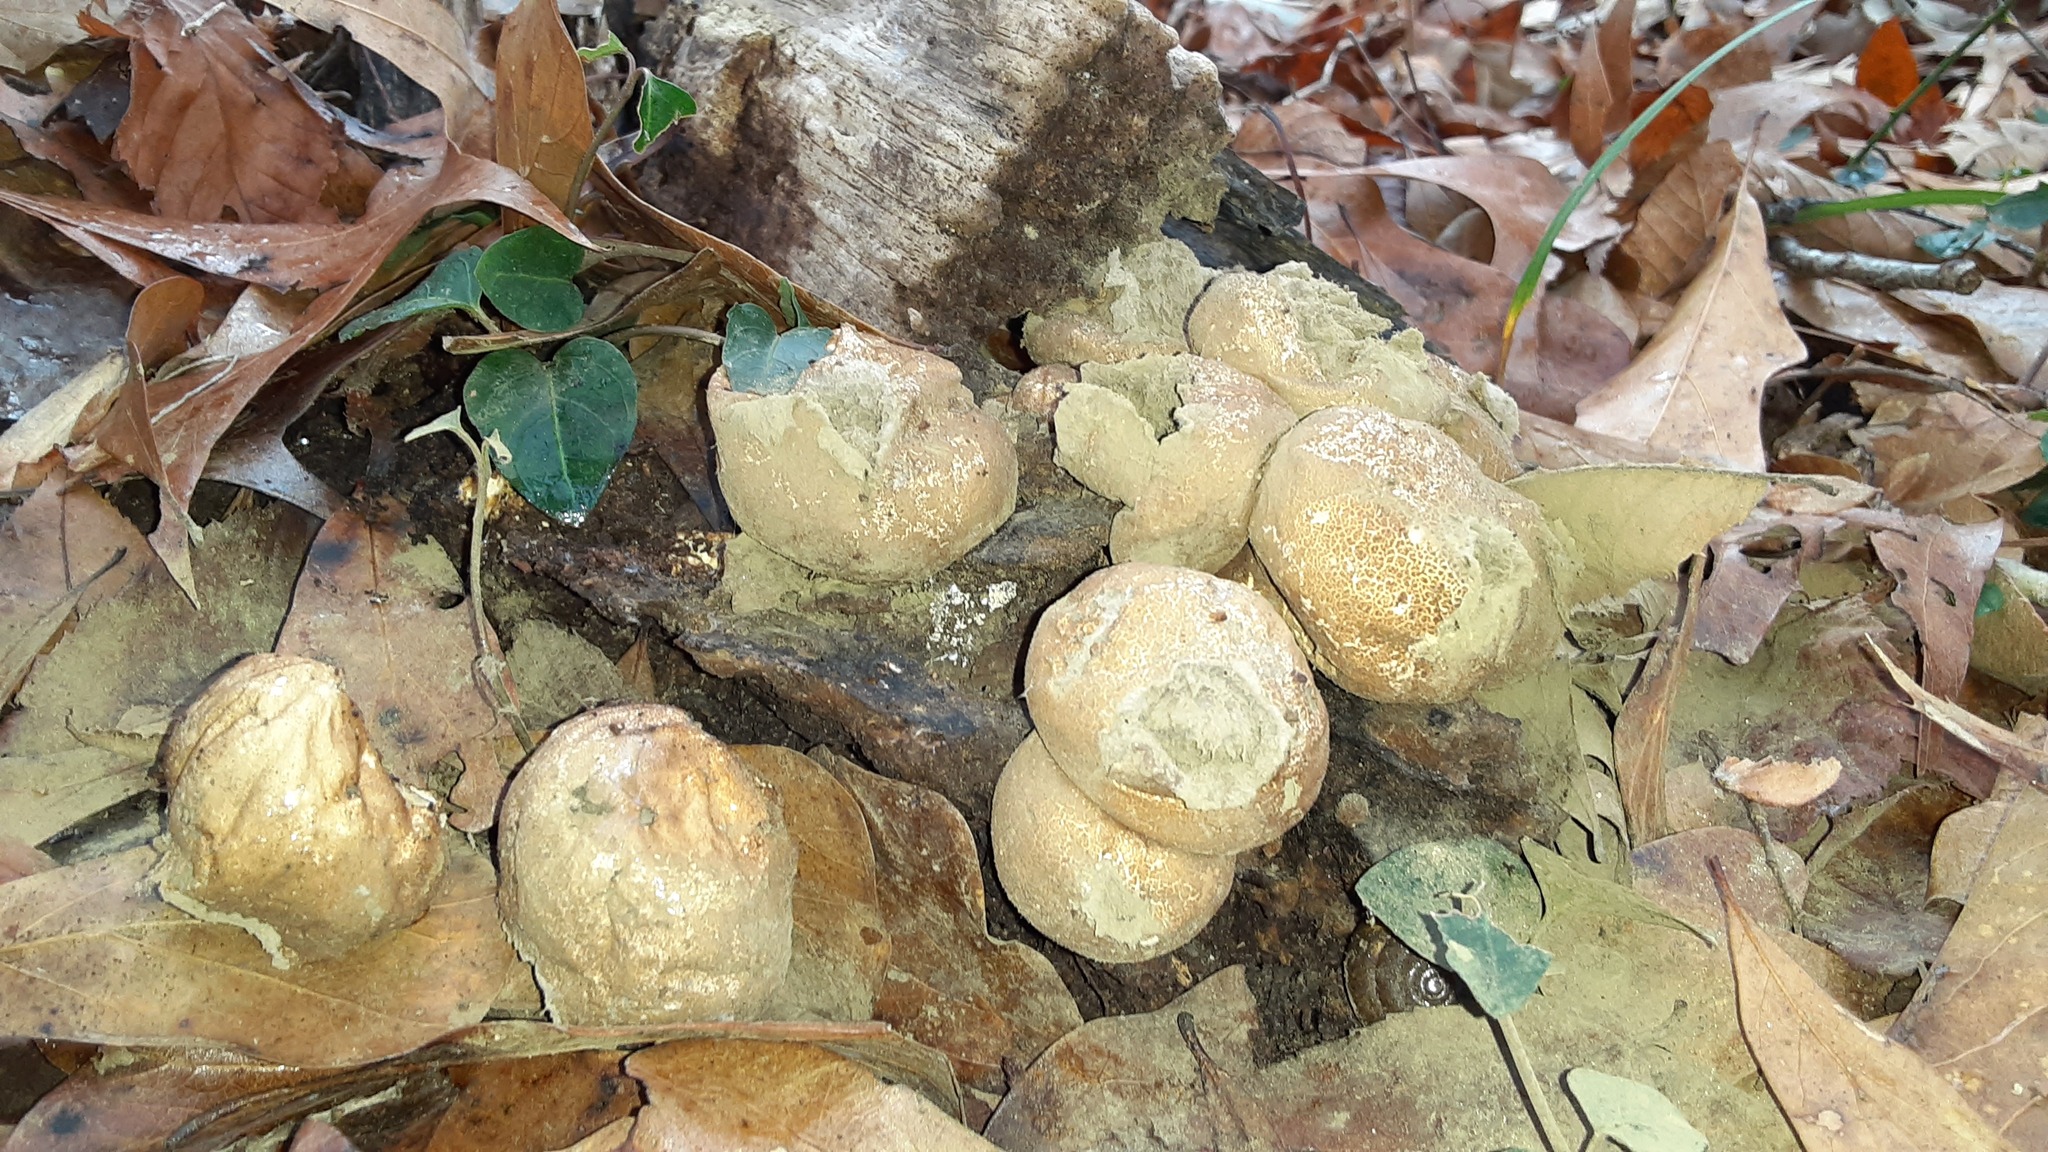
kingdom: Fungi
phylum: Basidiomycota
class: Agaricomycetes
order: Agaricales
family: Lycoperdaceae
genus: Apioperdon
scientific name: Apioperdon pyriforme
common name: Pear-shaped puffball
